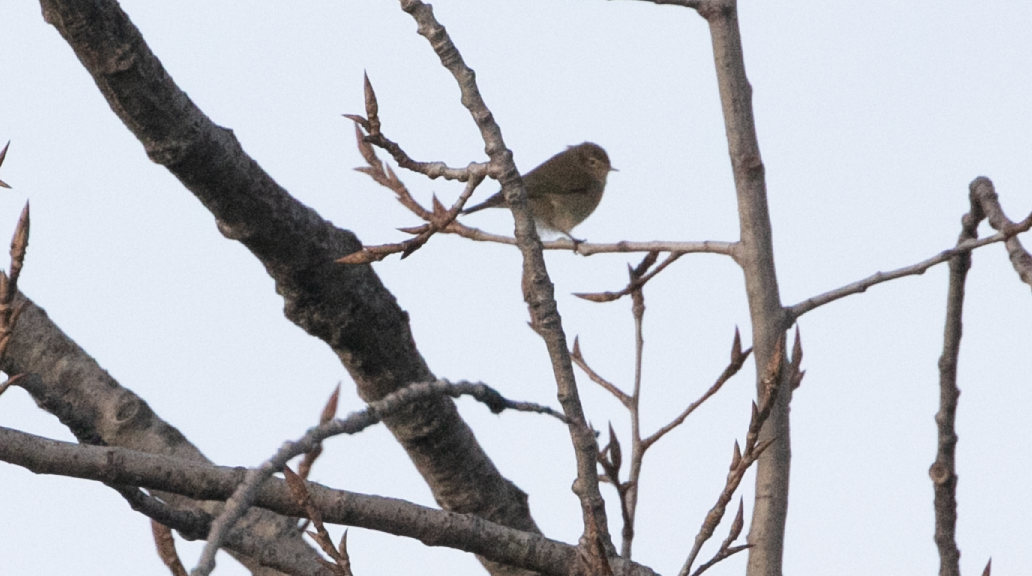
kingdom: Animalia
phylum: Chordata
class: Aves
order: Passeriformes
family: Phylloscopidae
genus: Phylloscopus
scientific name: Phylloscopus collybita
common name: Common chiffchaff
